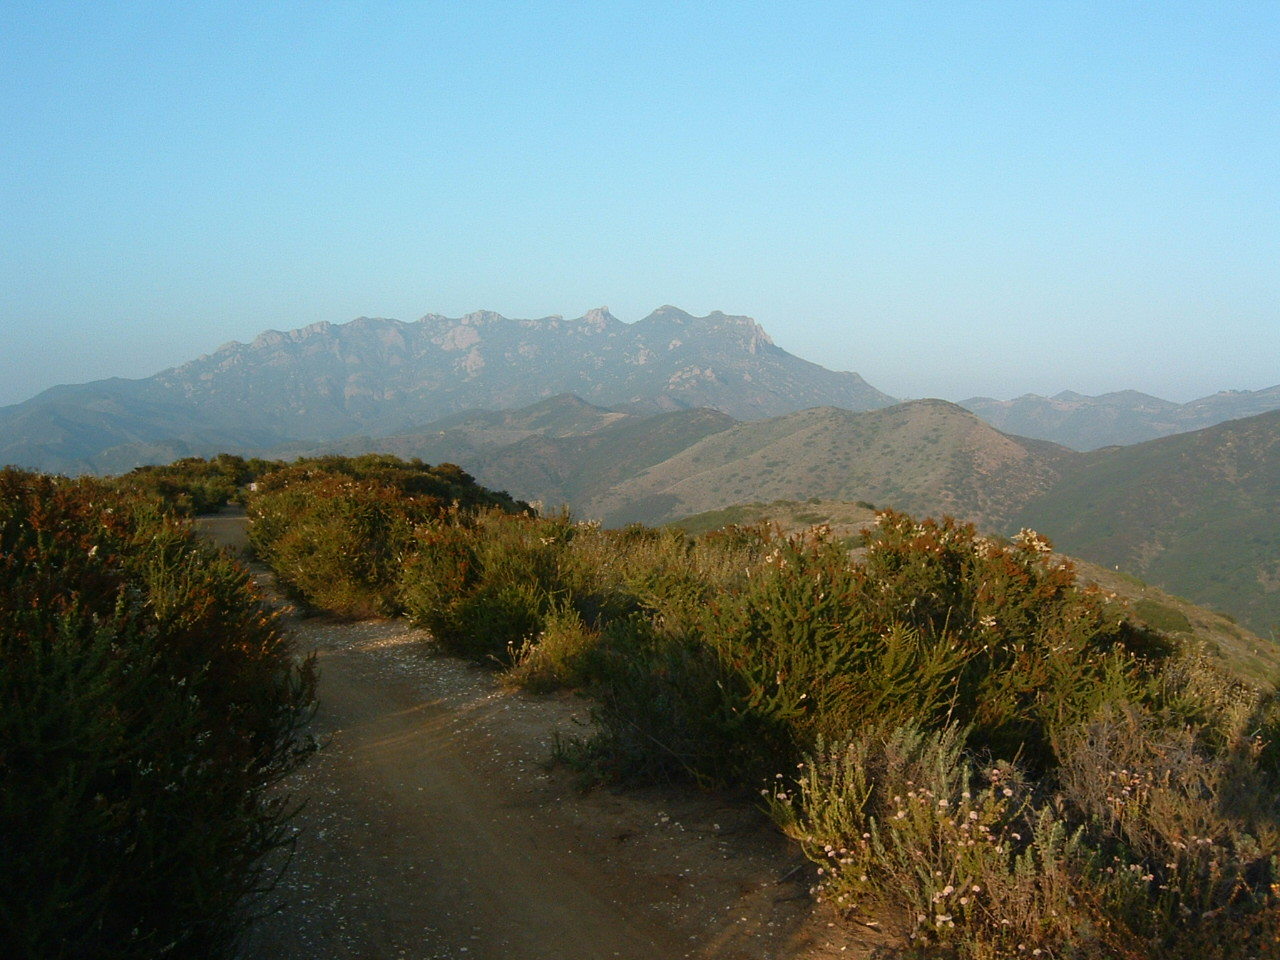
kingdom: Plantae
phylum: Tracheophyta
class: Magnoliopsida
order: Rosales
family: Rosaceae
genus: Adenostoma
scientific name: Adenostoma fasciculatum
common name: Chamise
